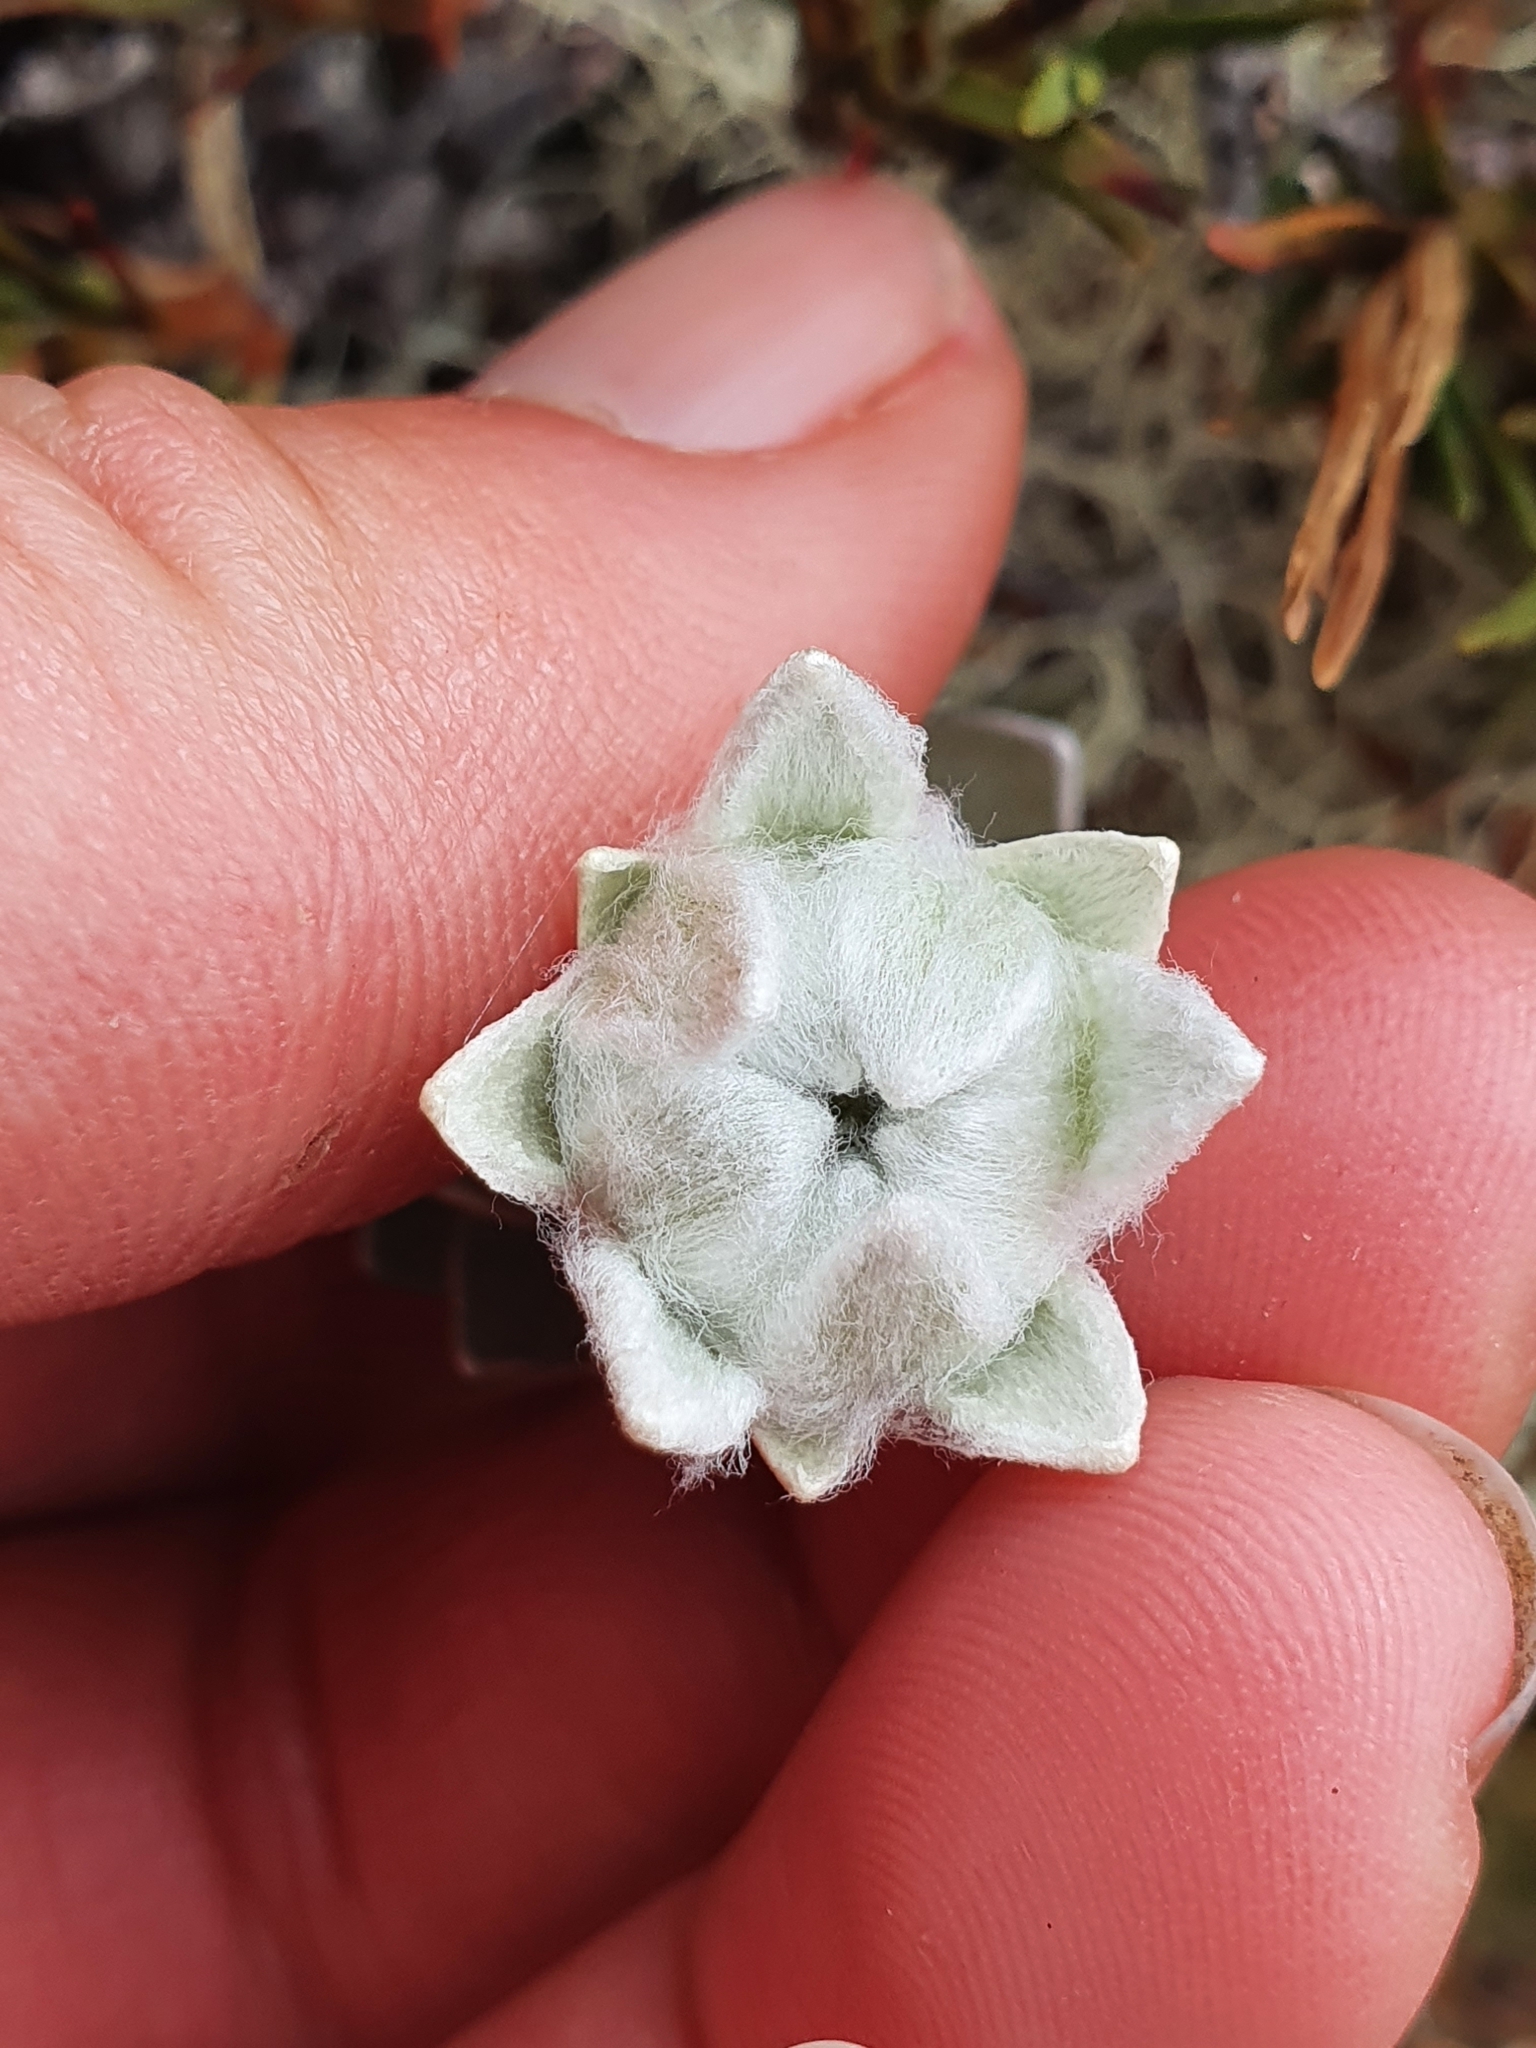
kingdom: Plantae
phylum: Tracheophyta
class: Magnoliopsida
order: Asterales
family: Asteraceae
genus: Leucogenes
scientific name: Leucogenes leontopodium
